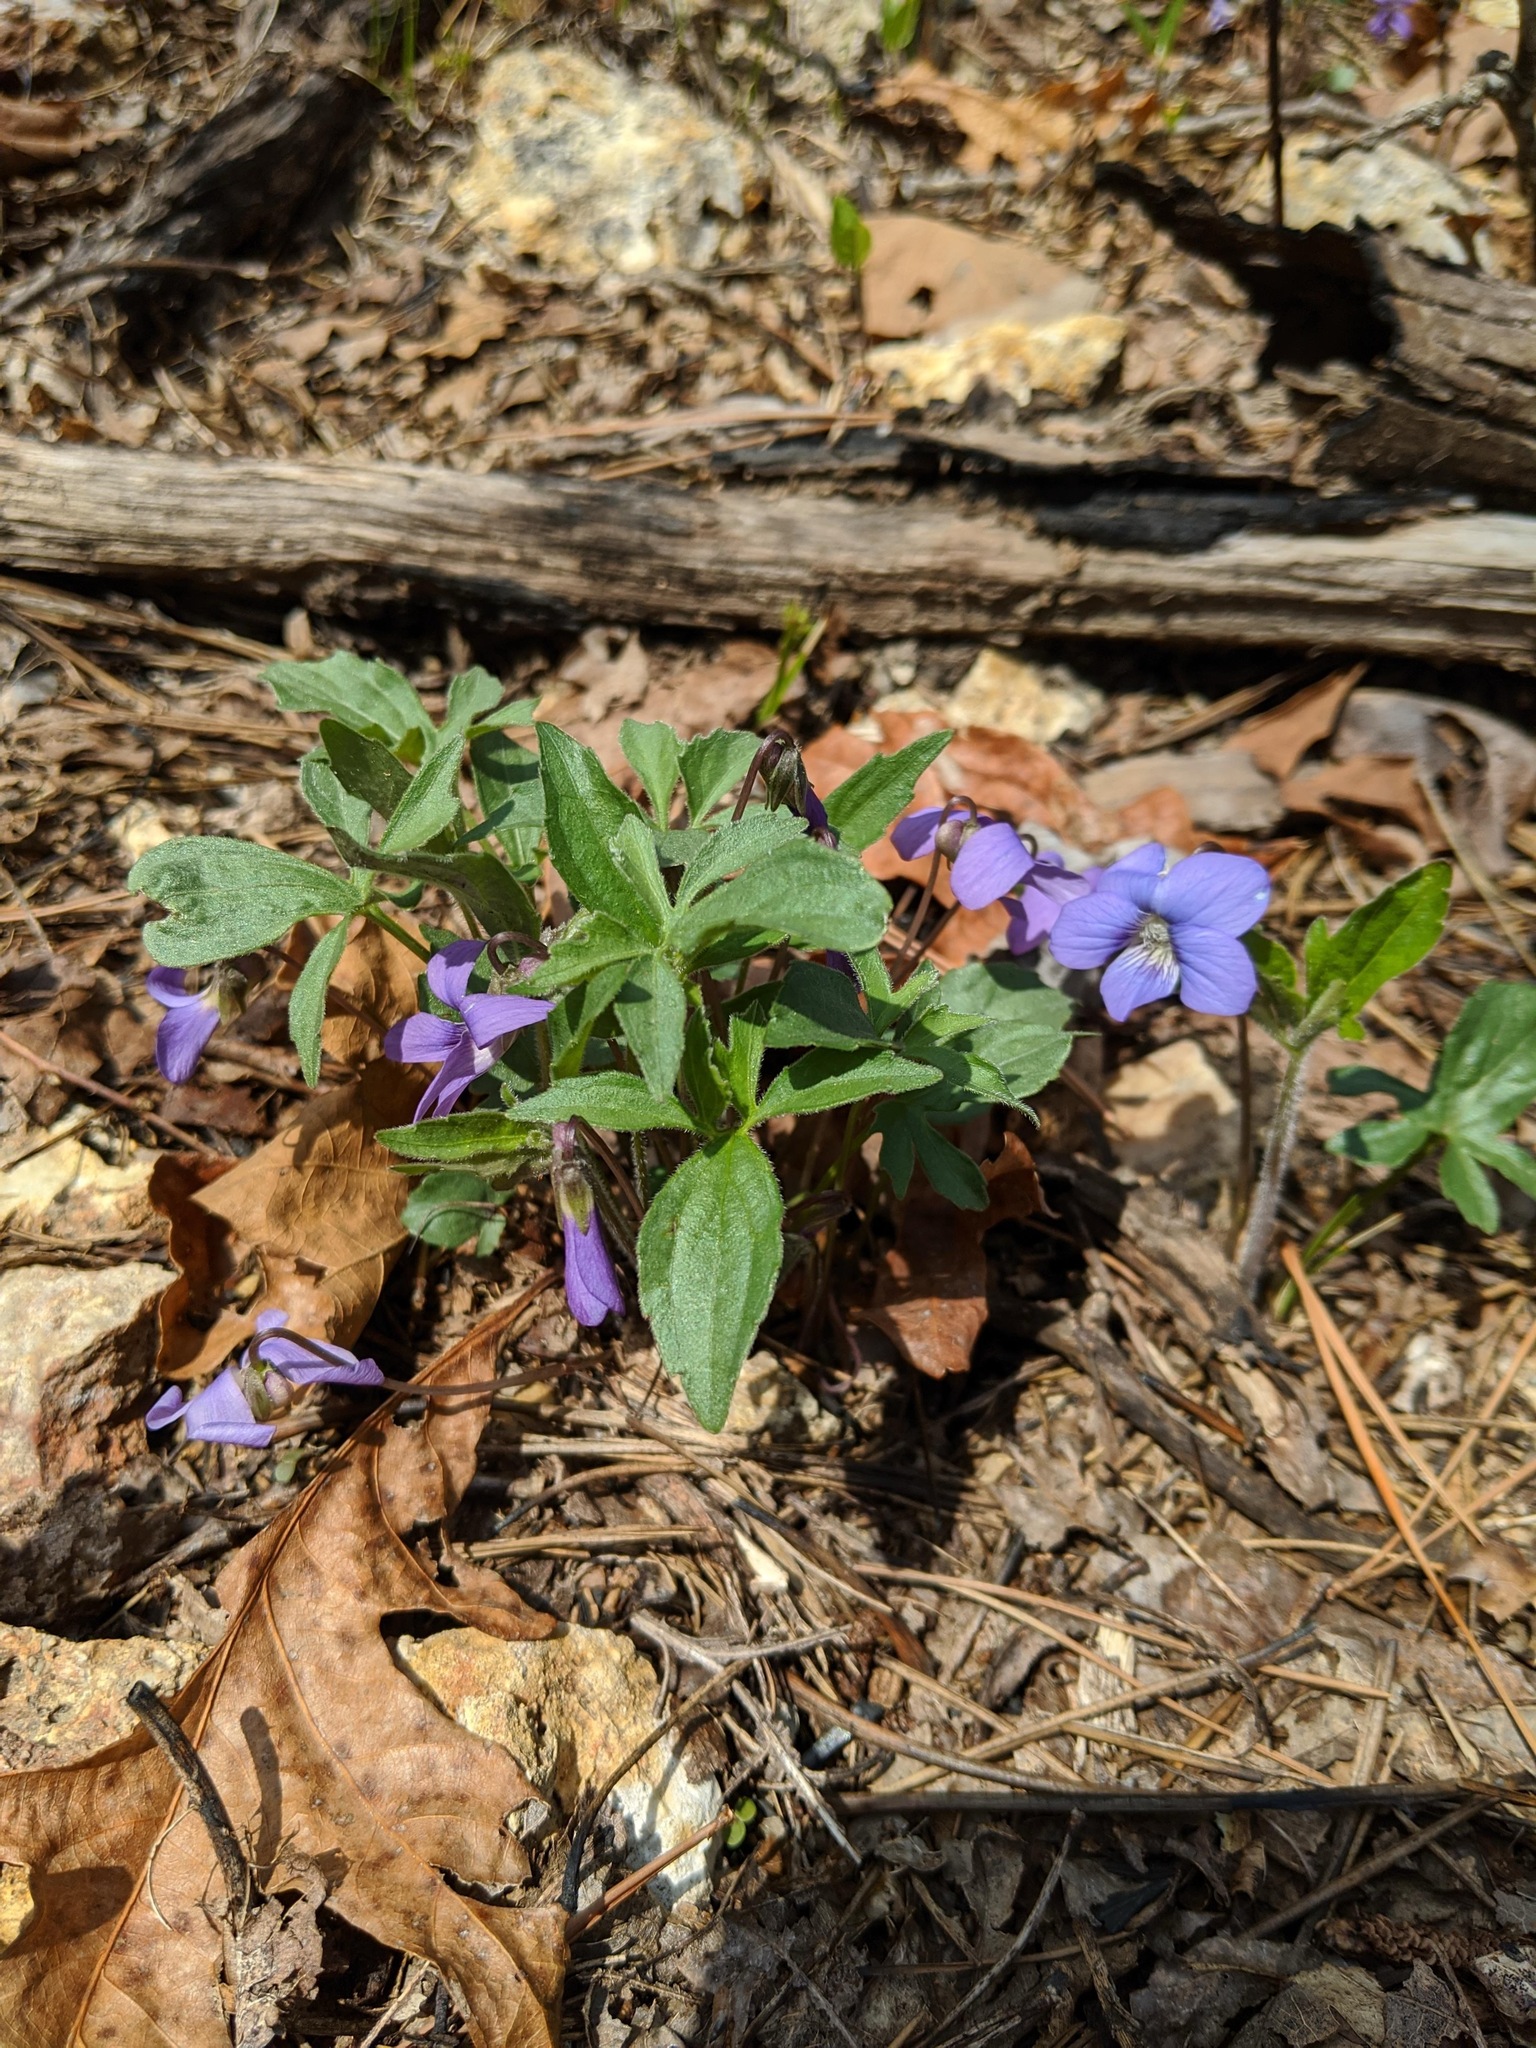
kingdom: Plantae
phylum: Tracheophyta
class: Magnoliopsida
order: Malpighiales
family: Violaceae
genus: Viola
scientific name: Viola palmata
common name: Early blue violet
